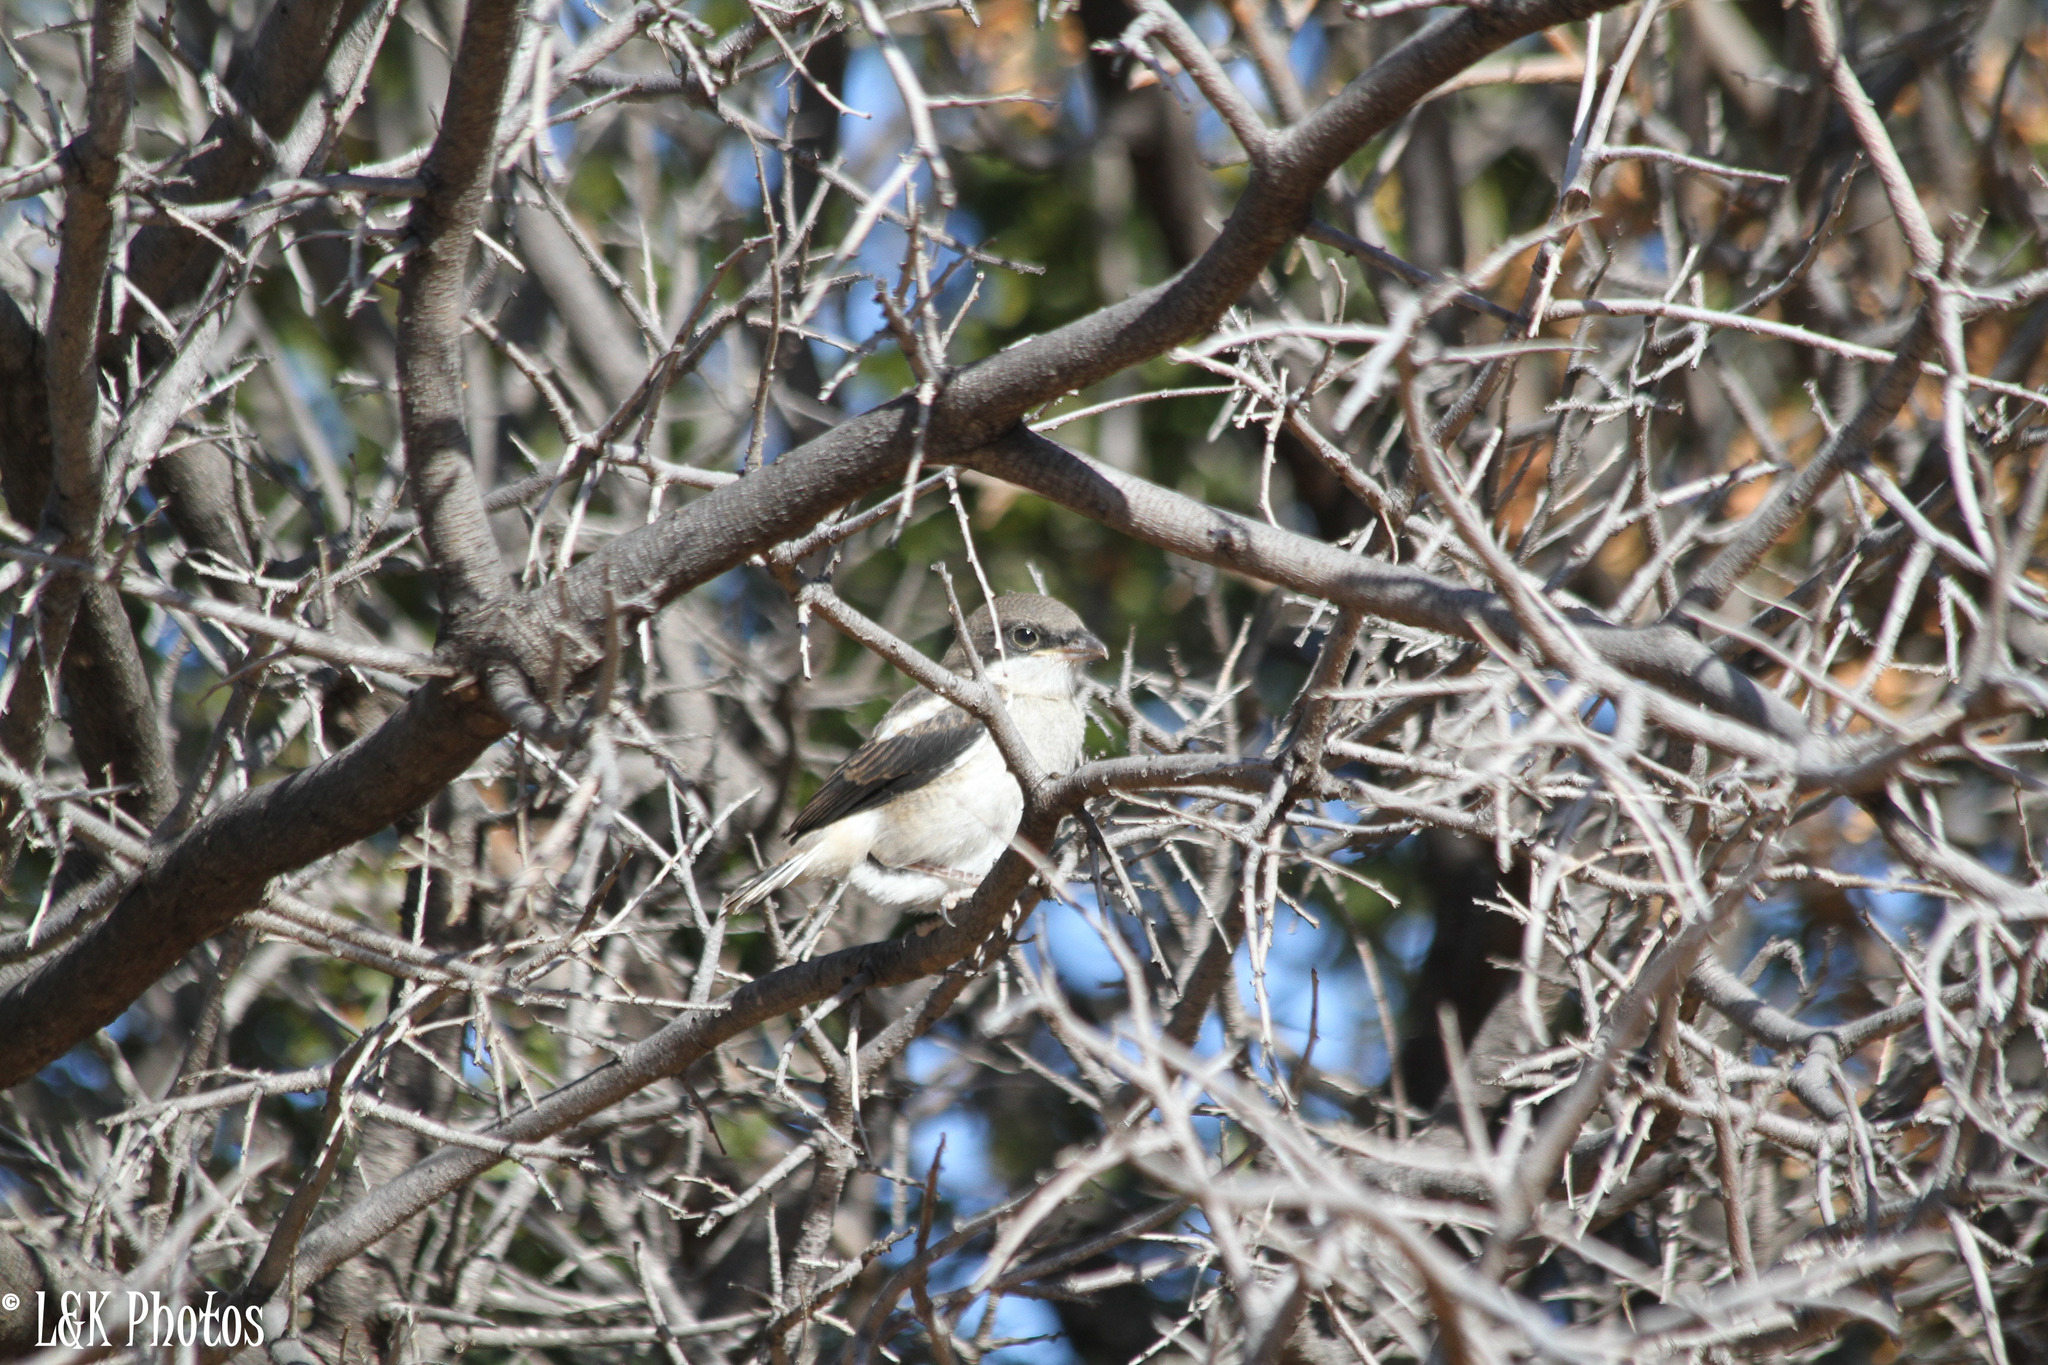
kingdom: Animalia
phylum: Chordata
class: Aves
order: Passeriformes
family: Laniidae
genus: Lanius
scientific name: Lanius collaris
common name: Southern fiscal
